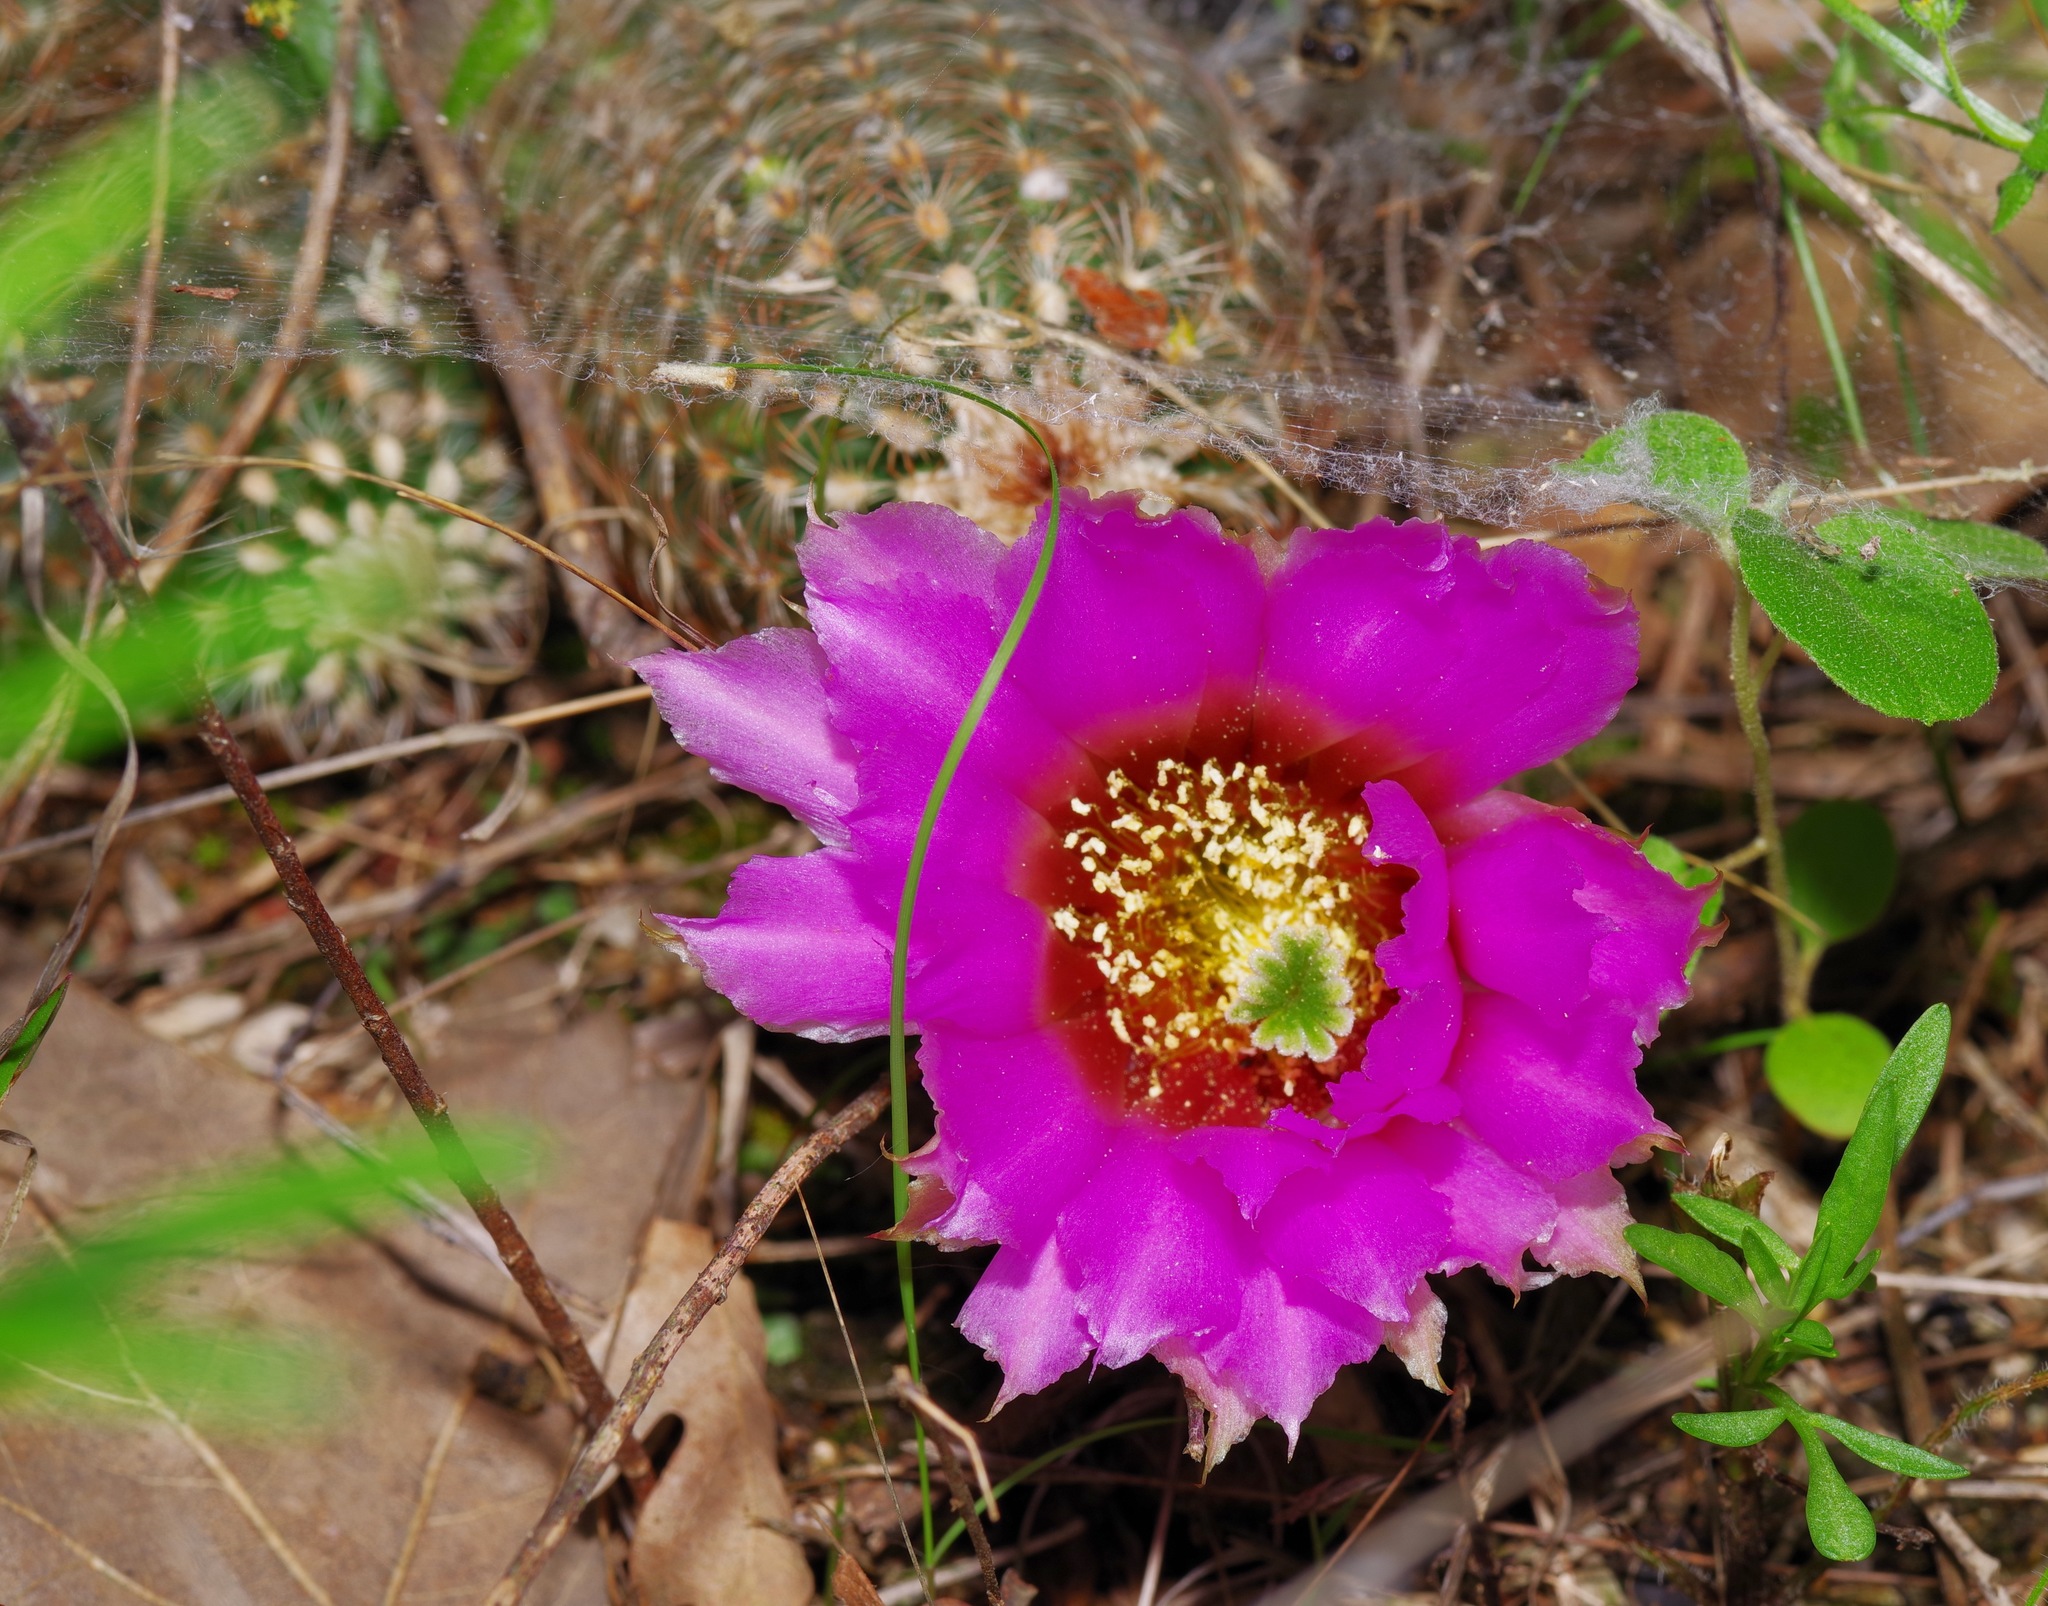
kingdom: Plantae
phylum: Tracheophyta
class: Magnoliopsida
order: Caryophyllales
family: Cactaceae
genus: Echinocereus
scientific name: Echinocereus reichenbachii
